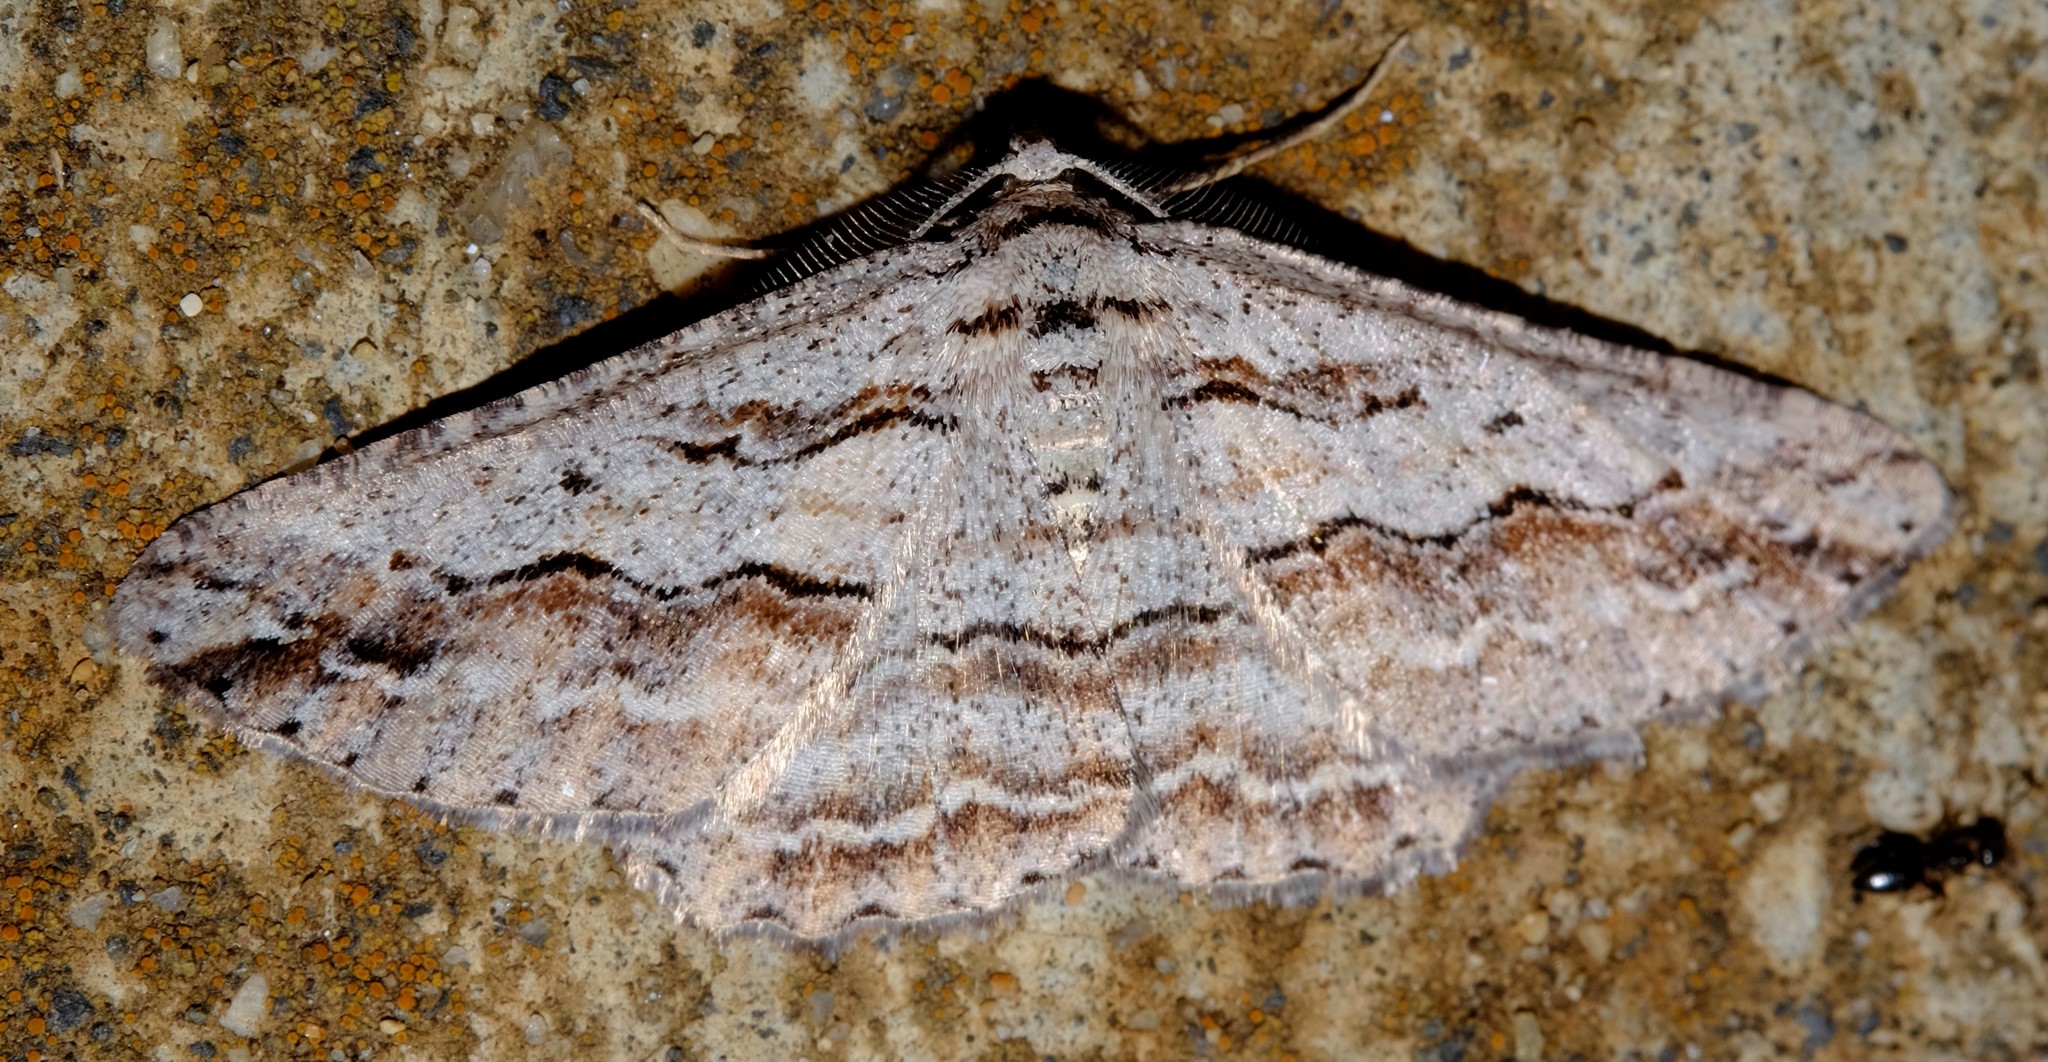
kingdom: Animalia
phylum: Arthropoda
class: Insecta
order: Lepidoptera
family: Geometridae
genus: Syneora
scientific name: Syneora mundifera
